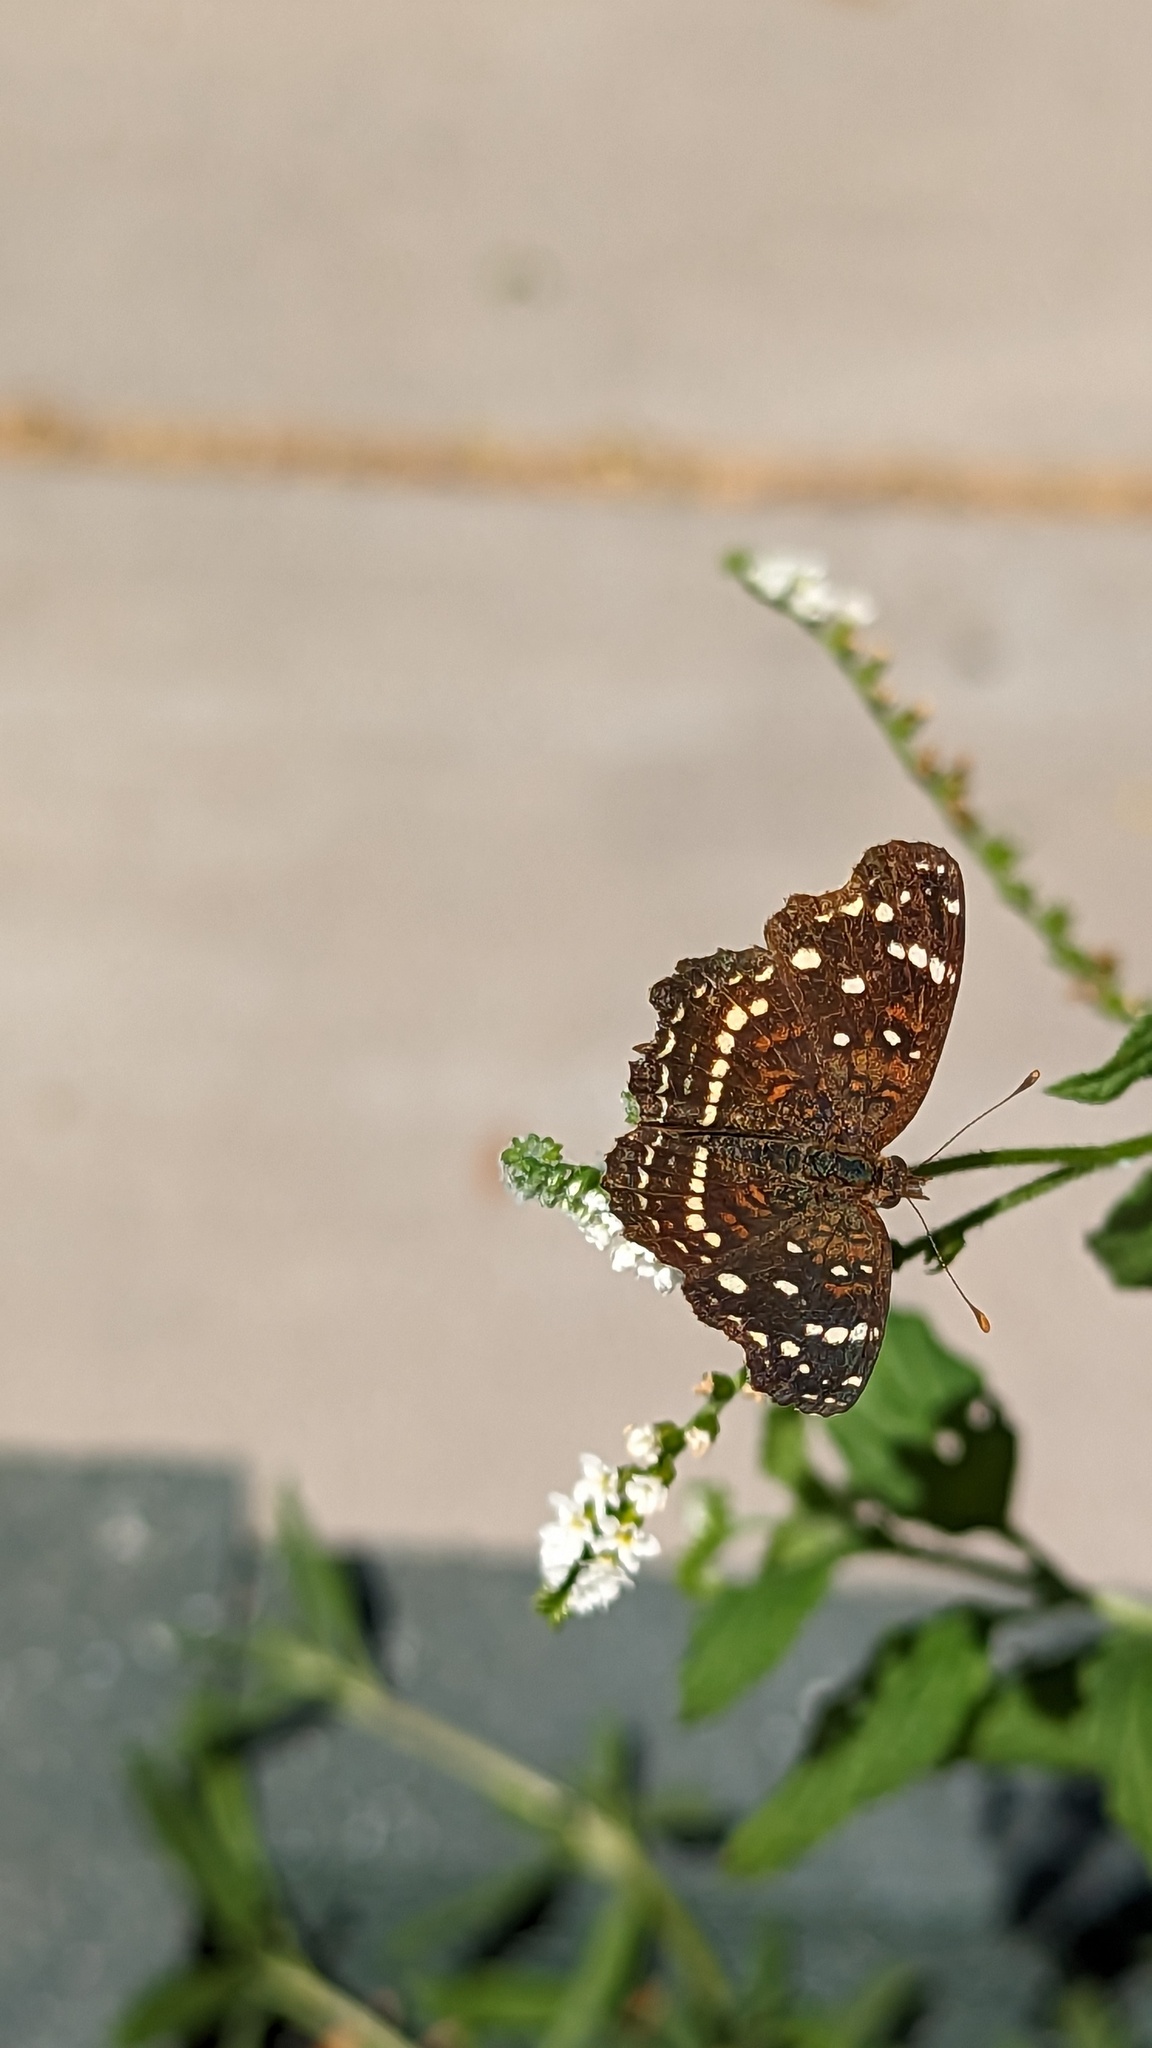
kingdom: Animalia
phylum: Arthropoda
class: Insecta
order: Lepidoptera
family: Nymphalidae
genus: Anthanassa
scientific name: Anthanassa texana
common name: Texan crescent
